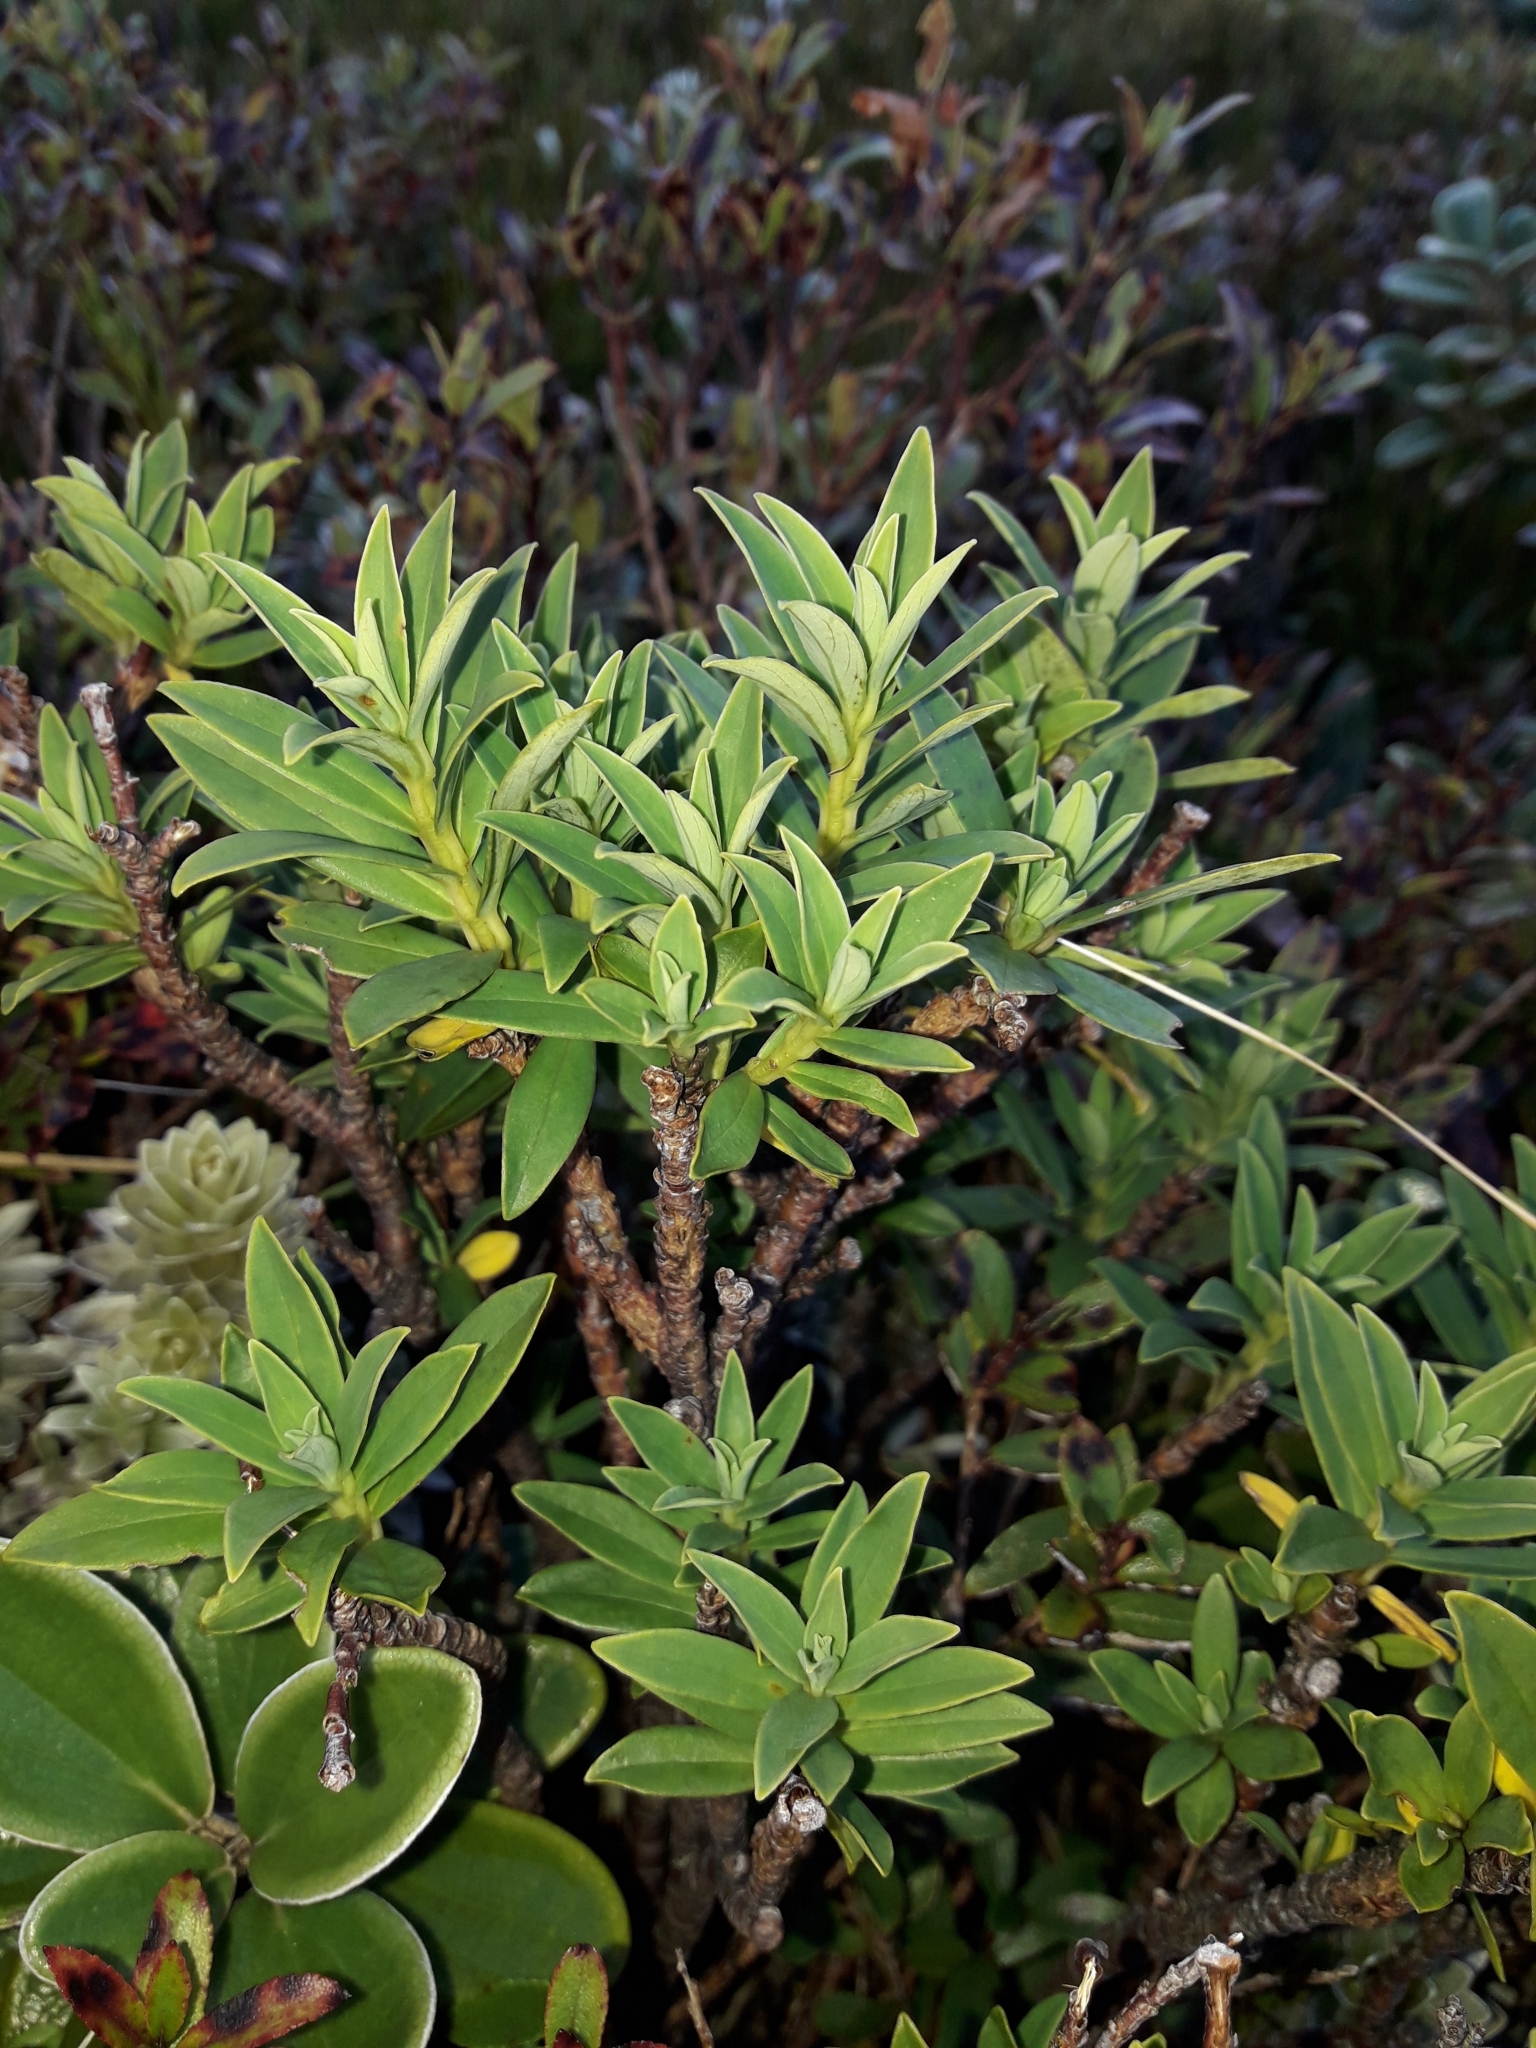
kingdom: Plantae
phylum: Tracheophyta
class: Magnoliopsida
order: Malvales
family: Thymelaeaceae
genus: Pimelea
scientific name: Pimelea gnidia
